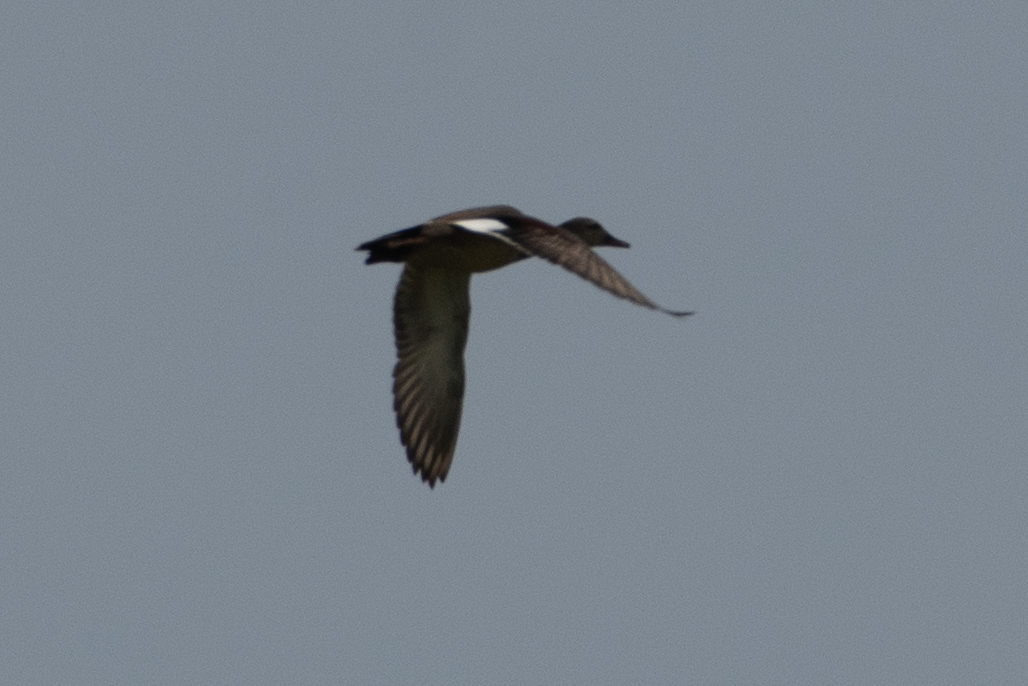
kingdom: Animalia
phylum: Chordata
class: Aves
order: Anseriformes
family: Anatidae
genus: Mareca
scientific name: Mareca strepera
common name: Gadwall
